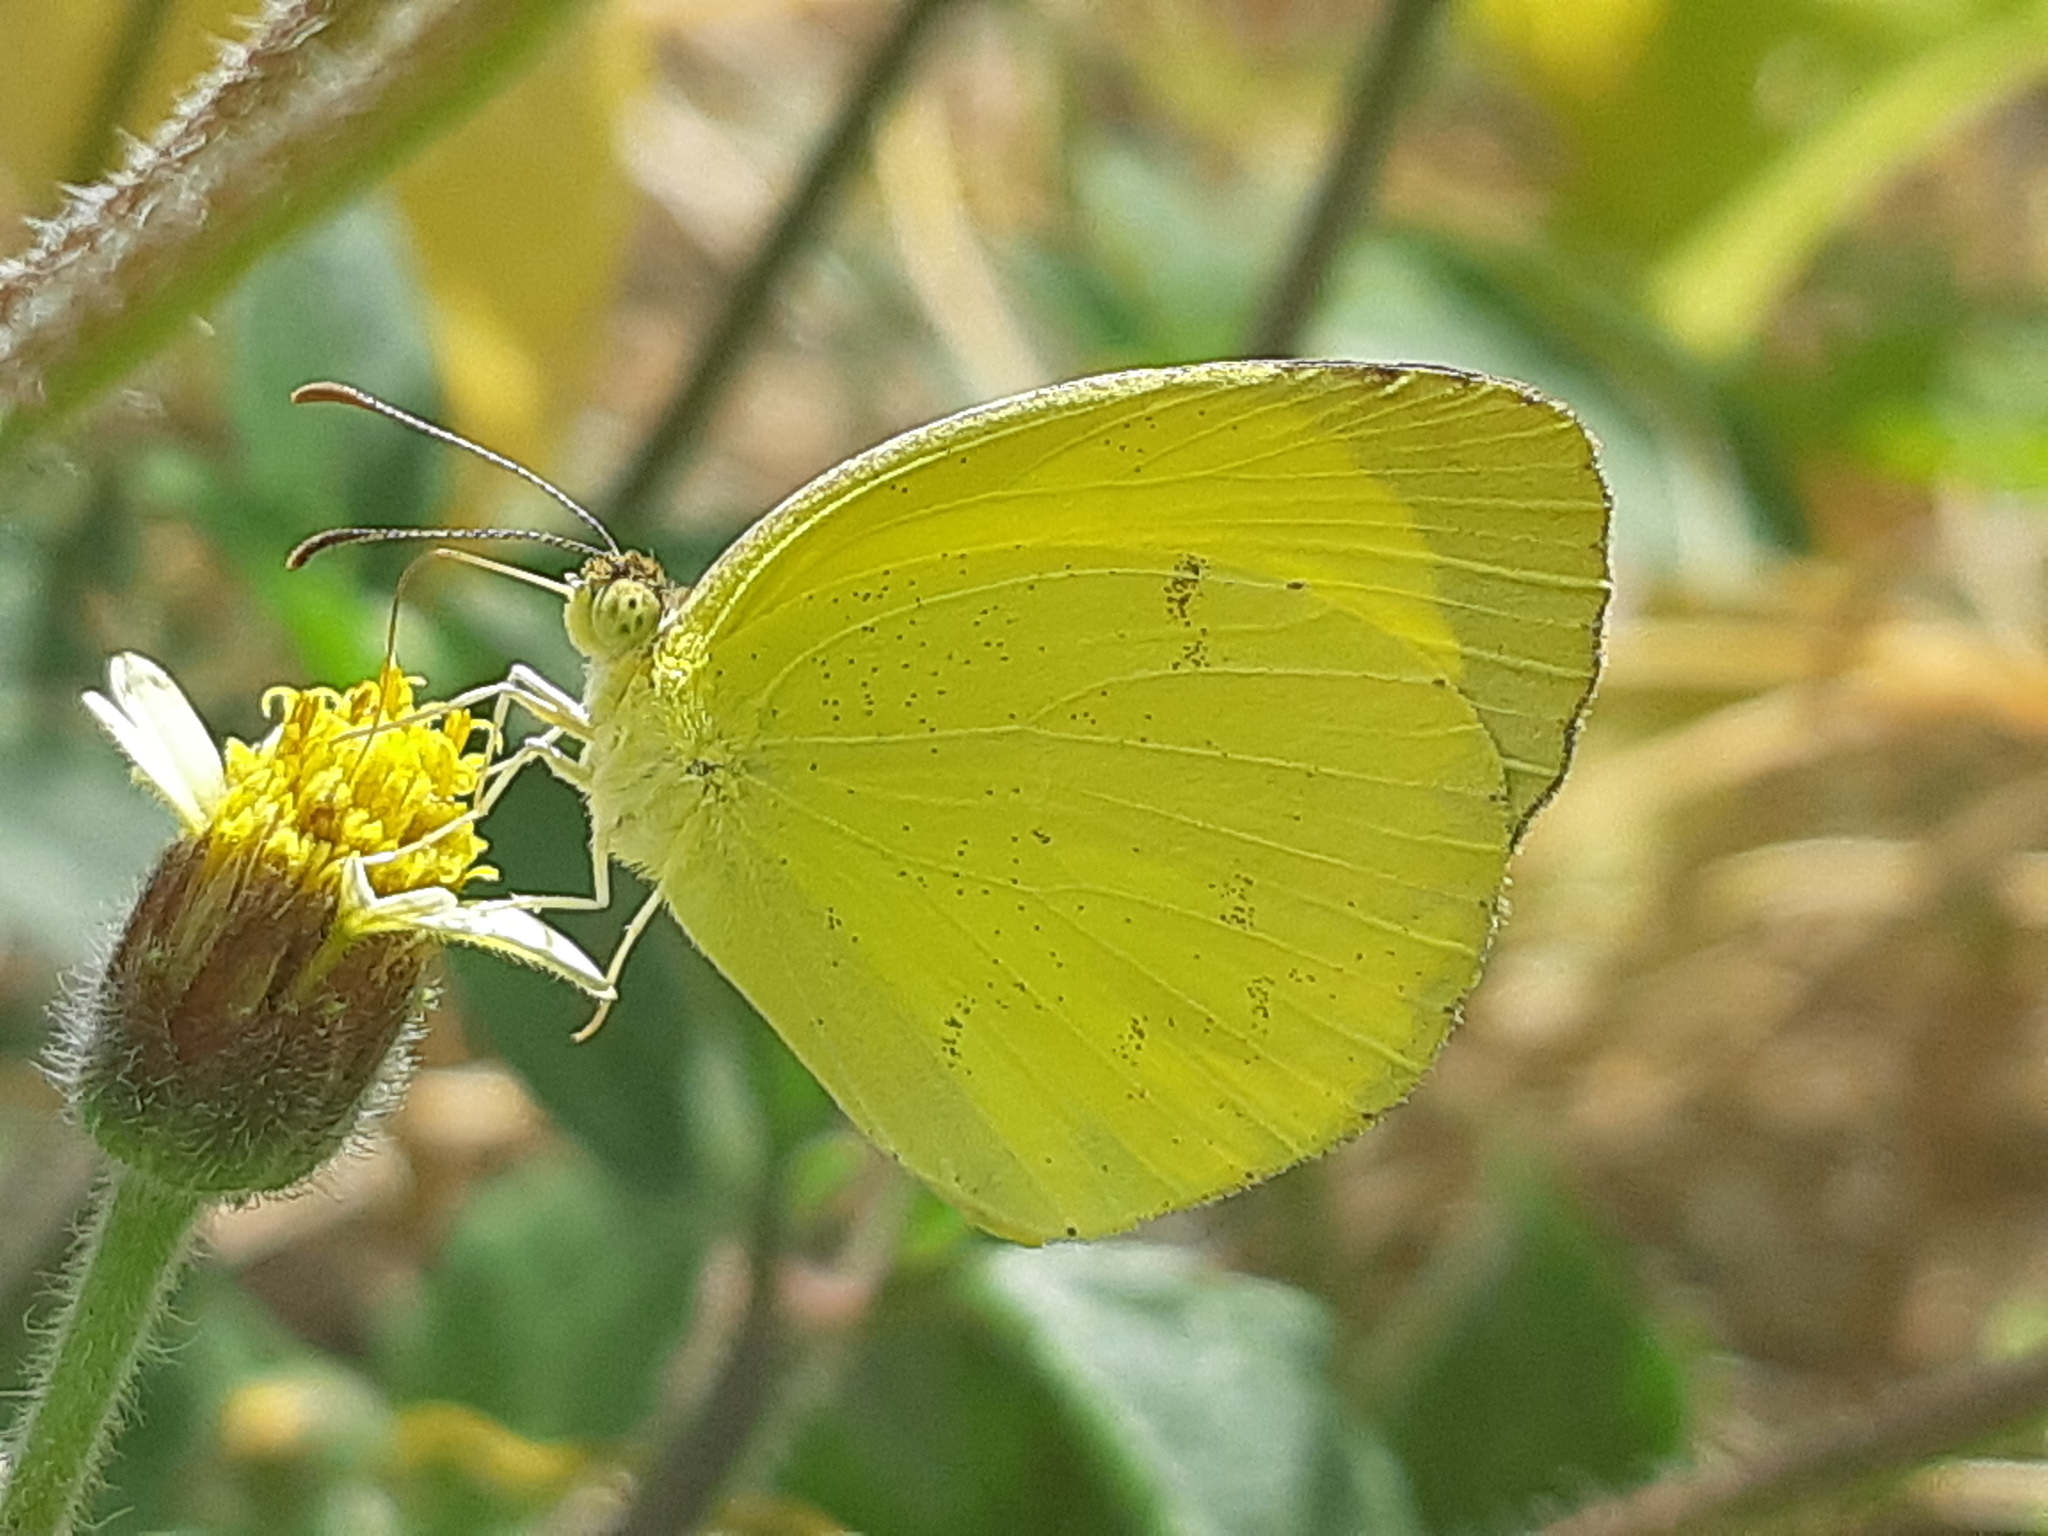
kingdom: Animalia
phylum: Arthropoda
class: Insecta
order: Lepidoptera
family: Pieridae
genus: Pyrisitia
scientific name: Pyrisitia nise
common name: Mimosa yellow
